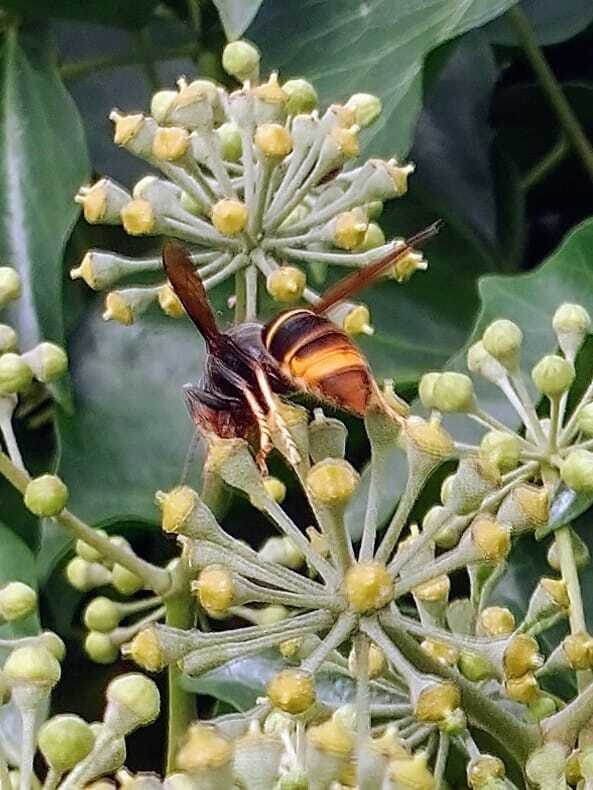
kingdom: Animalia
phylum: Arthropoda
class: Insecta
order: Hymenoptera
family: Vespidae
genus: Vespa
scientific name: Vespa velutina
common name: Asian hornet
